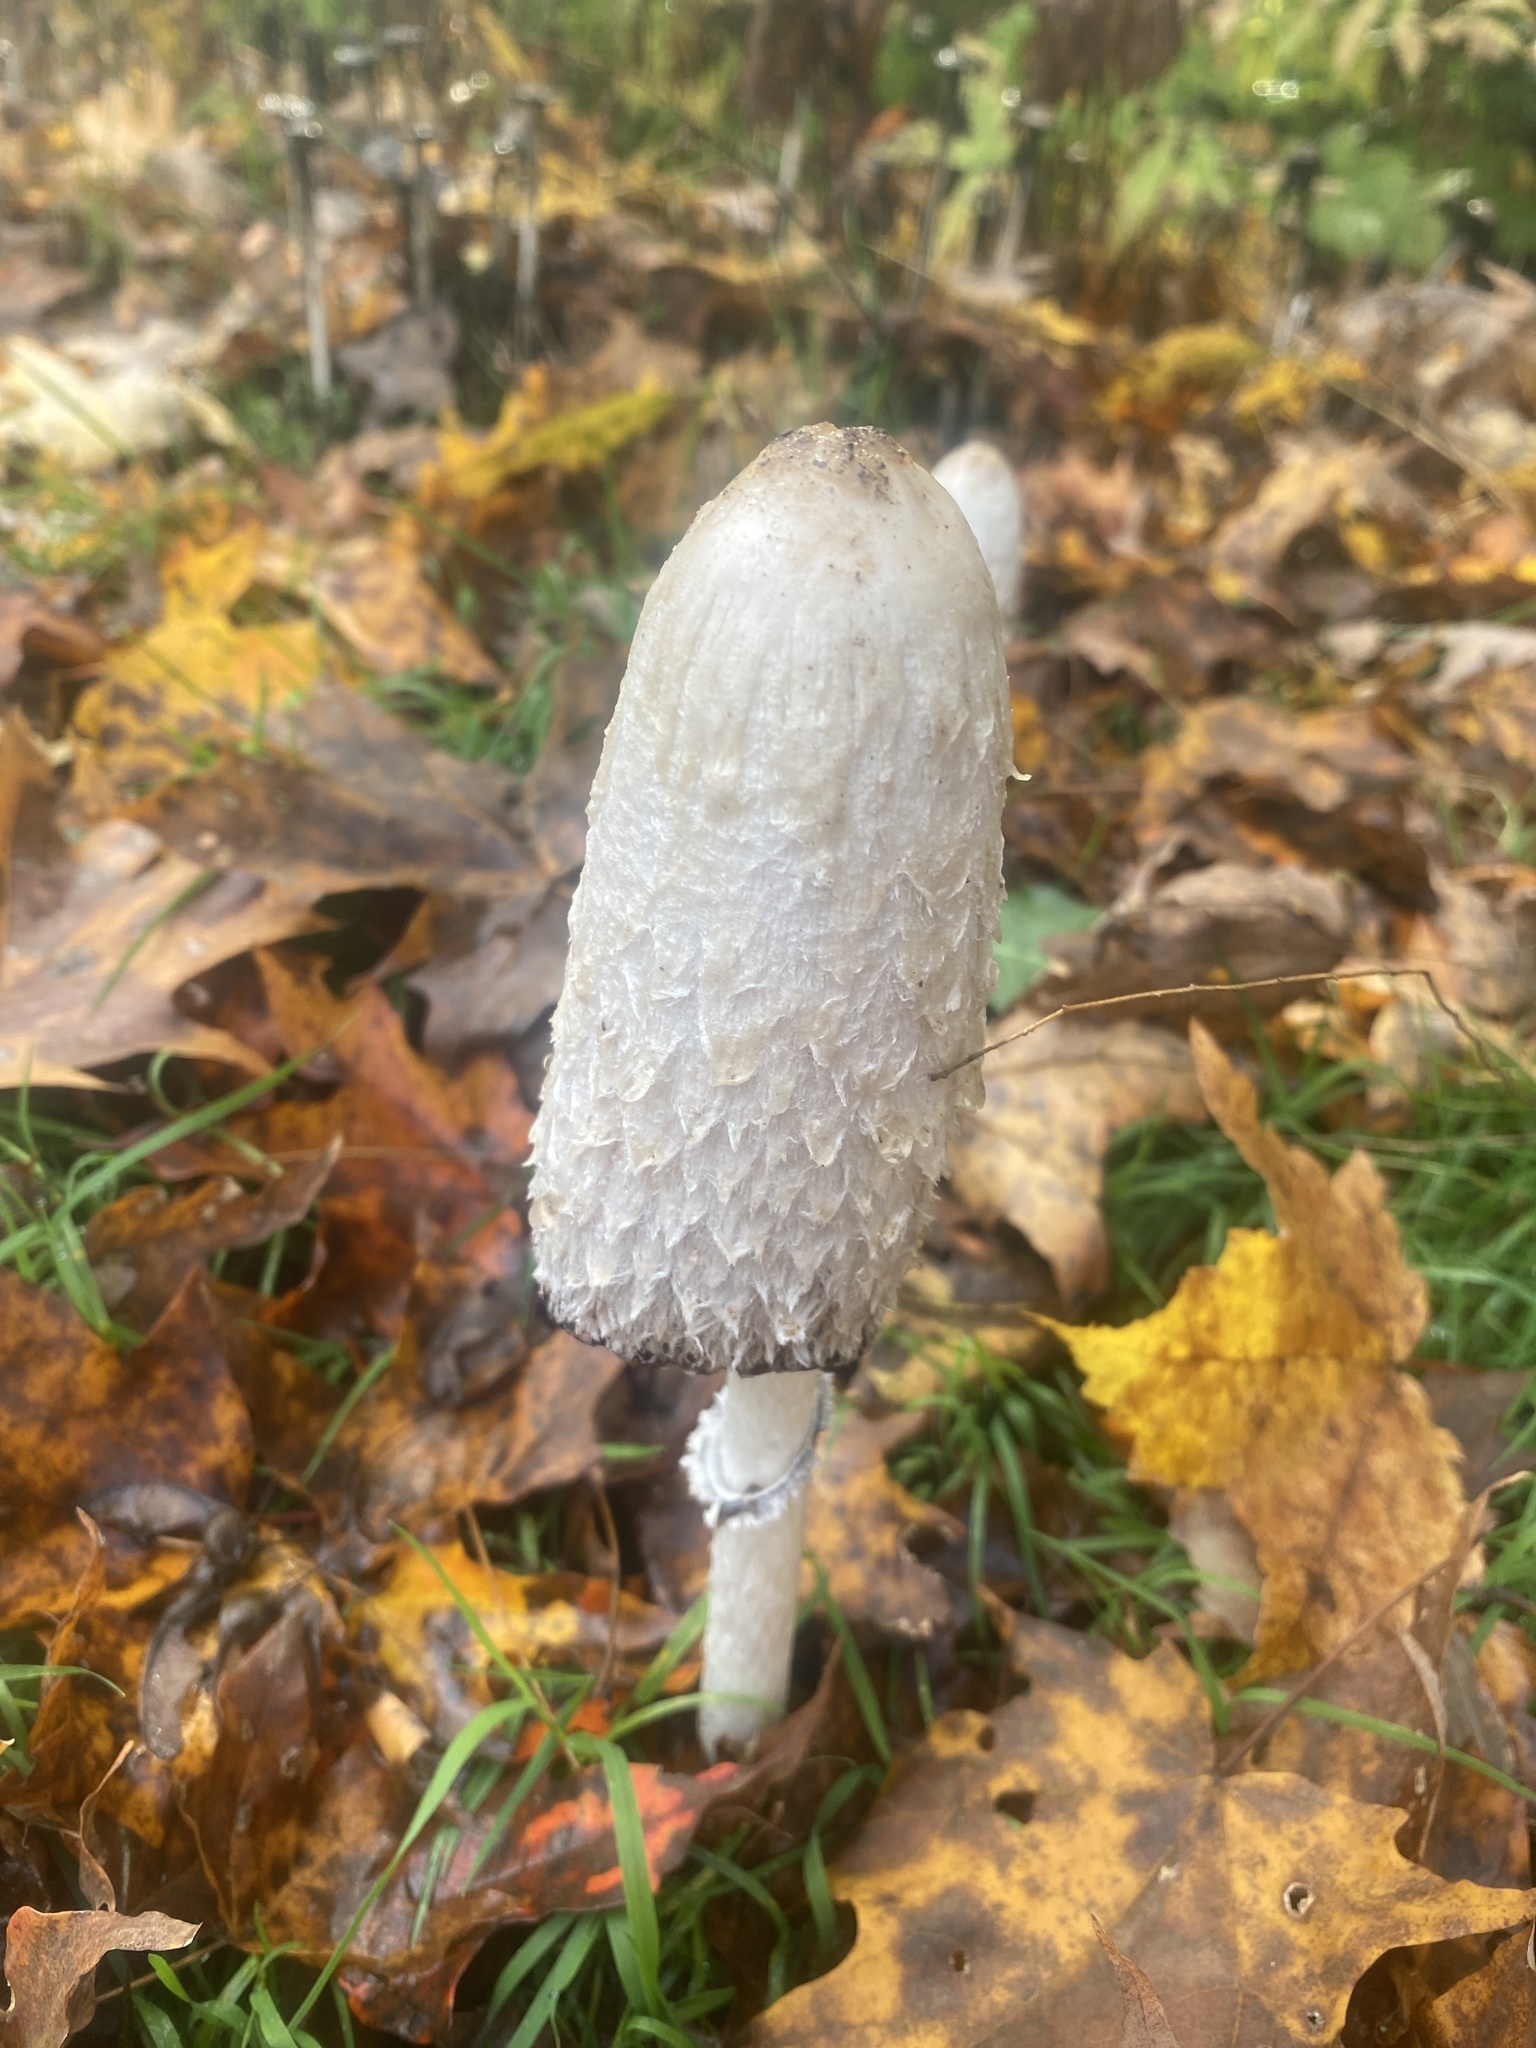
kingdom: Fungi
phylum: Basidiomycota
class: Agaricomycetes
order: Agaricales
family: Agaricaceae
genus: Coprinus
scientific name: Coprinus comatus
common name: Lawyer's wig
